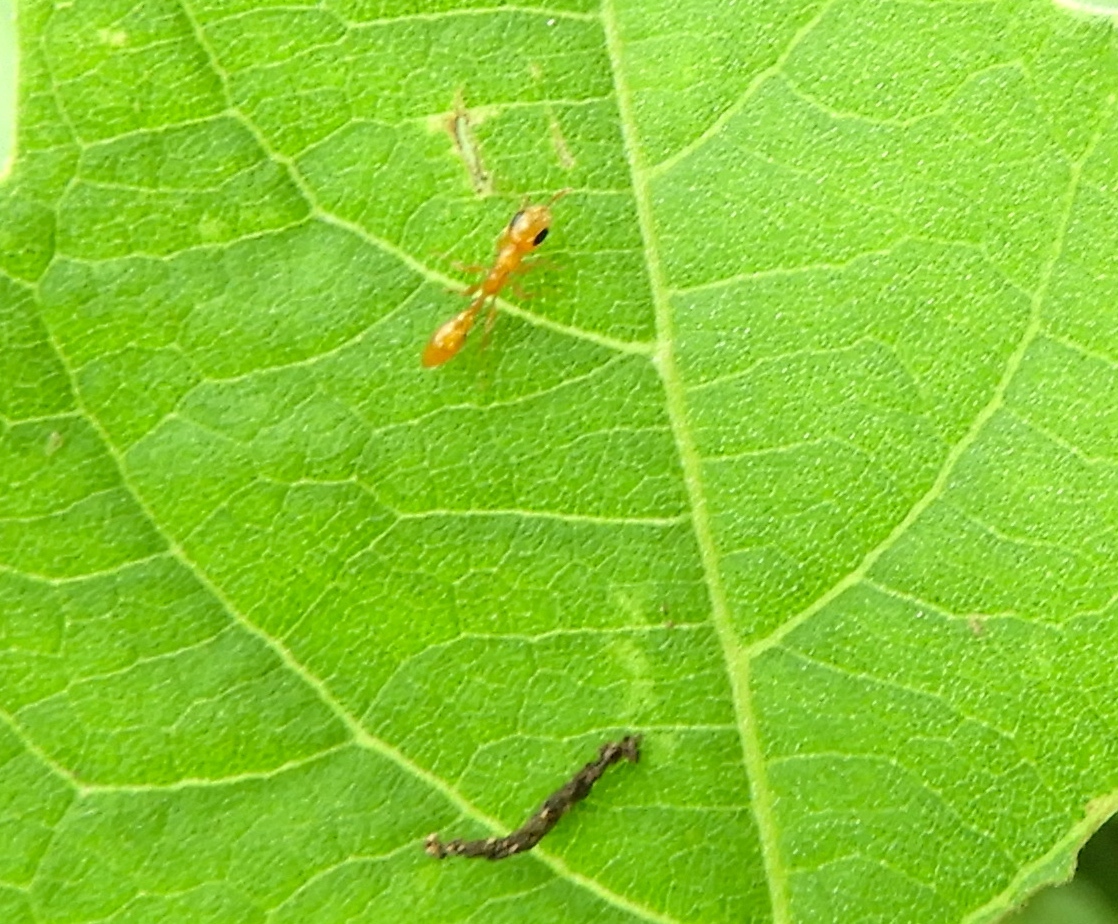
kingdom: Animalia
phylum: Arthropoda
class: Insecta
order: Hymenoptera
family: Formicidae
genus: Pseudomyrmex
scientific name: Pseudomyrmex pallidus
